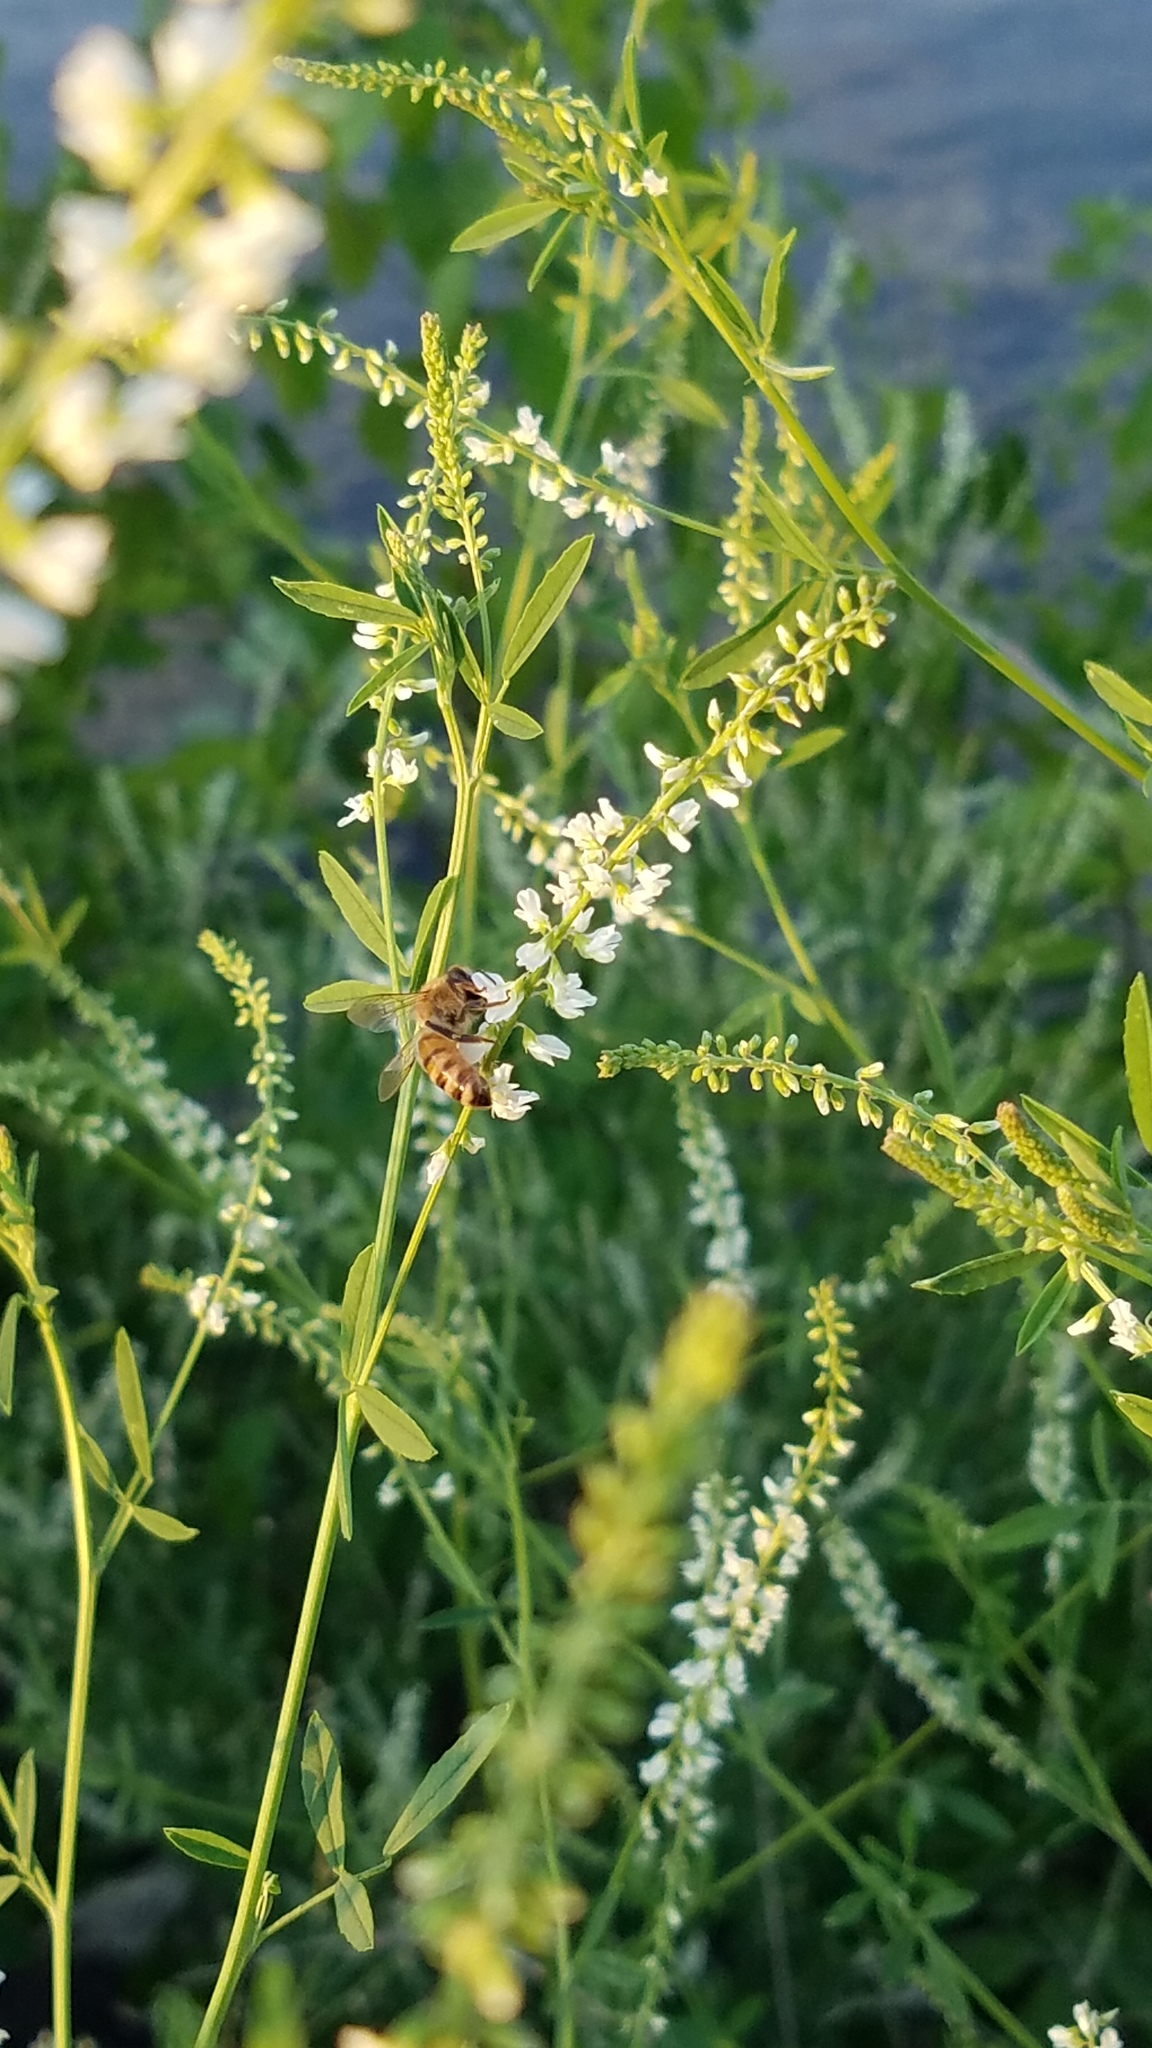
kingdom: Plantae
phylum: Tracheophyta
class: Magnoliopsida
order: Fabales
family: Fabaceae
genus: Melilotus
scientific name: Melilotus albus
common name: White melilot
